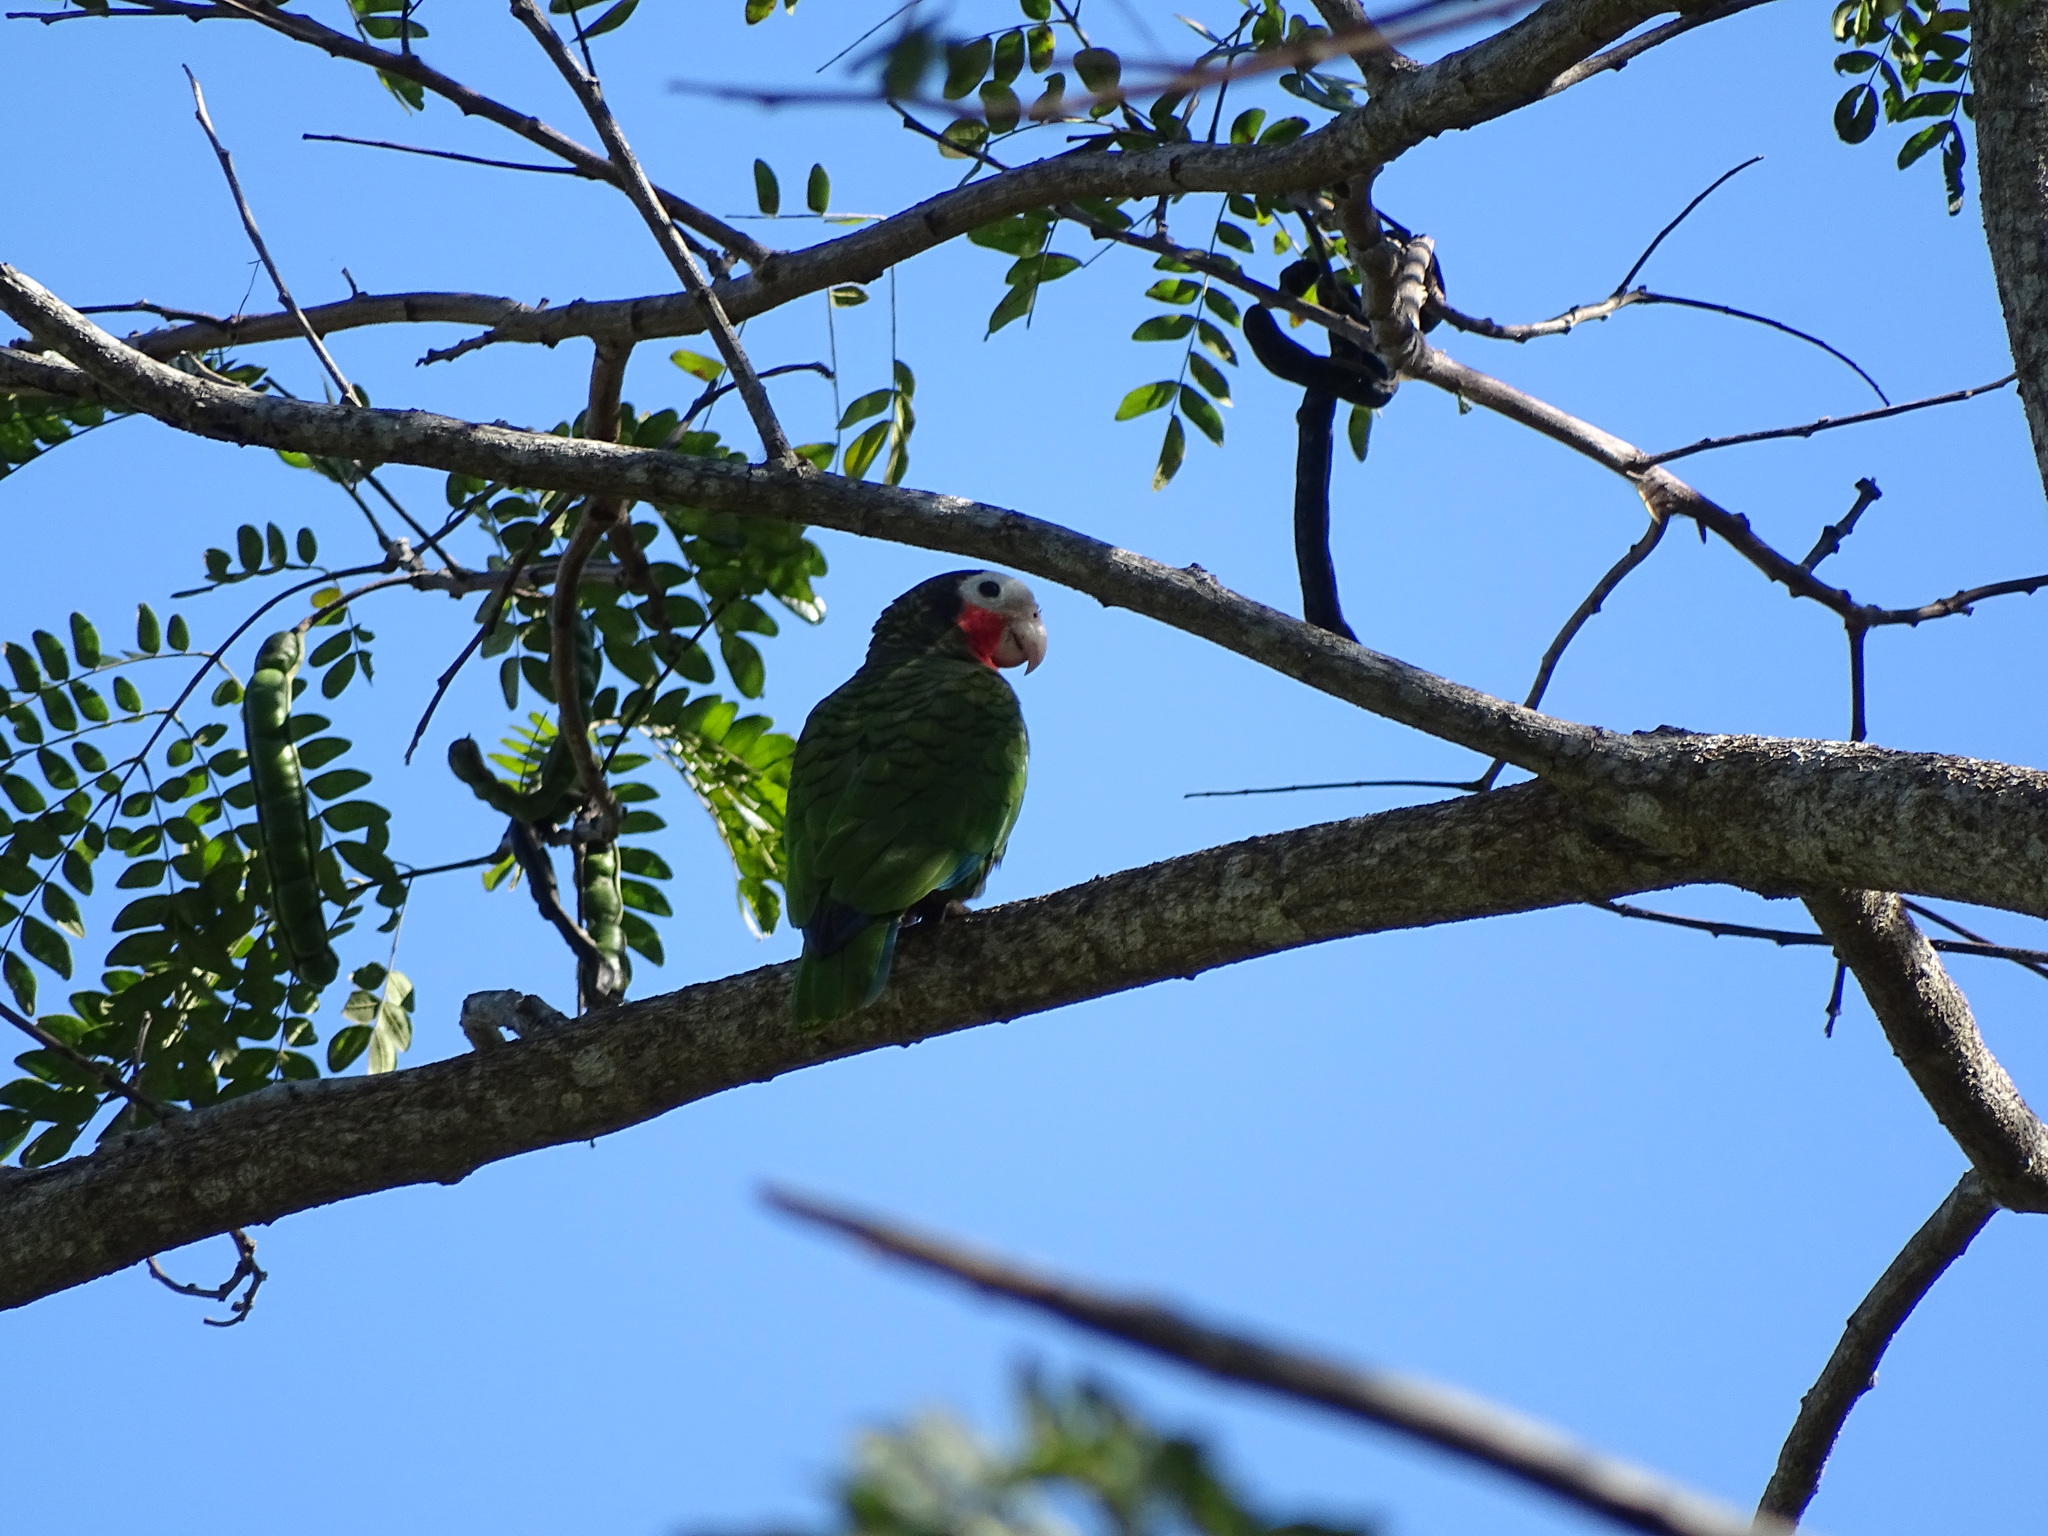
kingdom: Animalia
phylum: Chordata
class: Aves
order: Psittaciformes
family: Psittacidae
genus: Amazona
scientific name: Amazona leucocephala
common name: Cuban amazon
